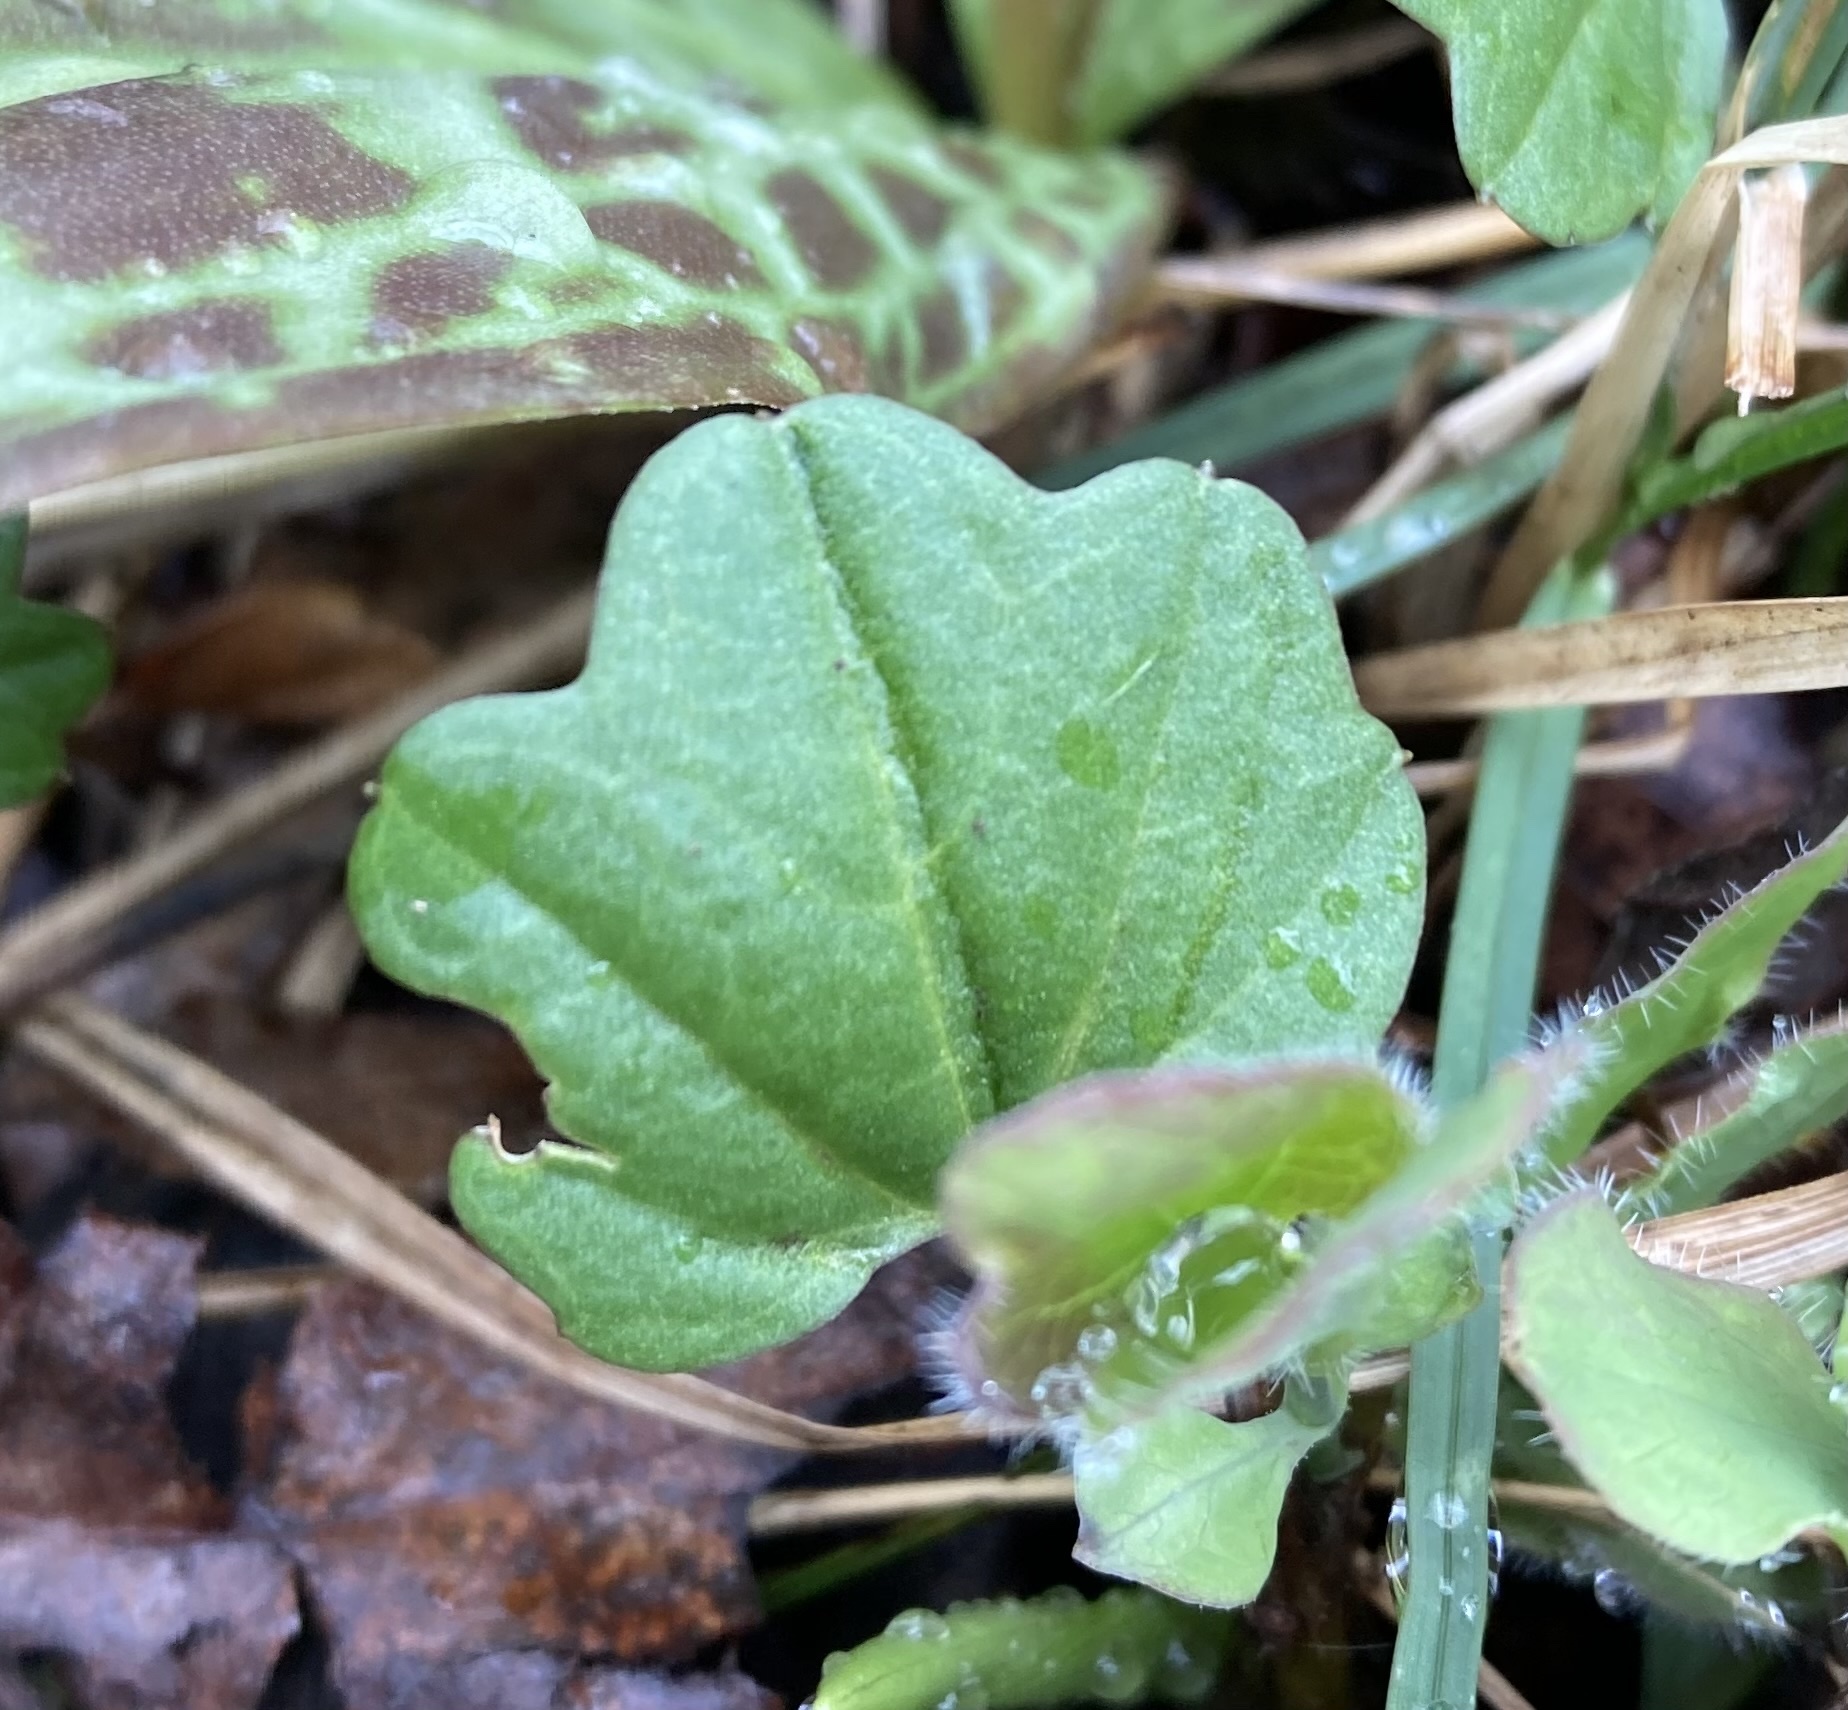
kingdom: Plantae
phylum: Tracheophyta
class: Magnoliopsida
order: Brassicales
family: Brassicaceae
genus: Cardamine
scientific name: Cardamine nuttallii
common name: Nuttall's toothwort
